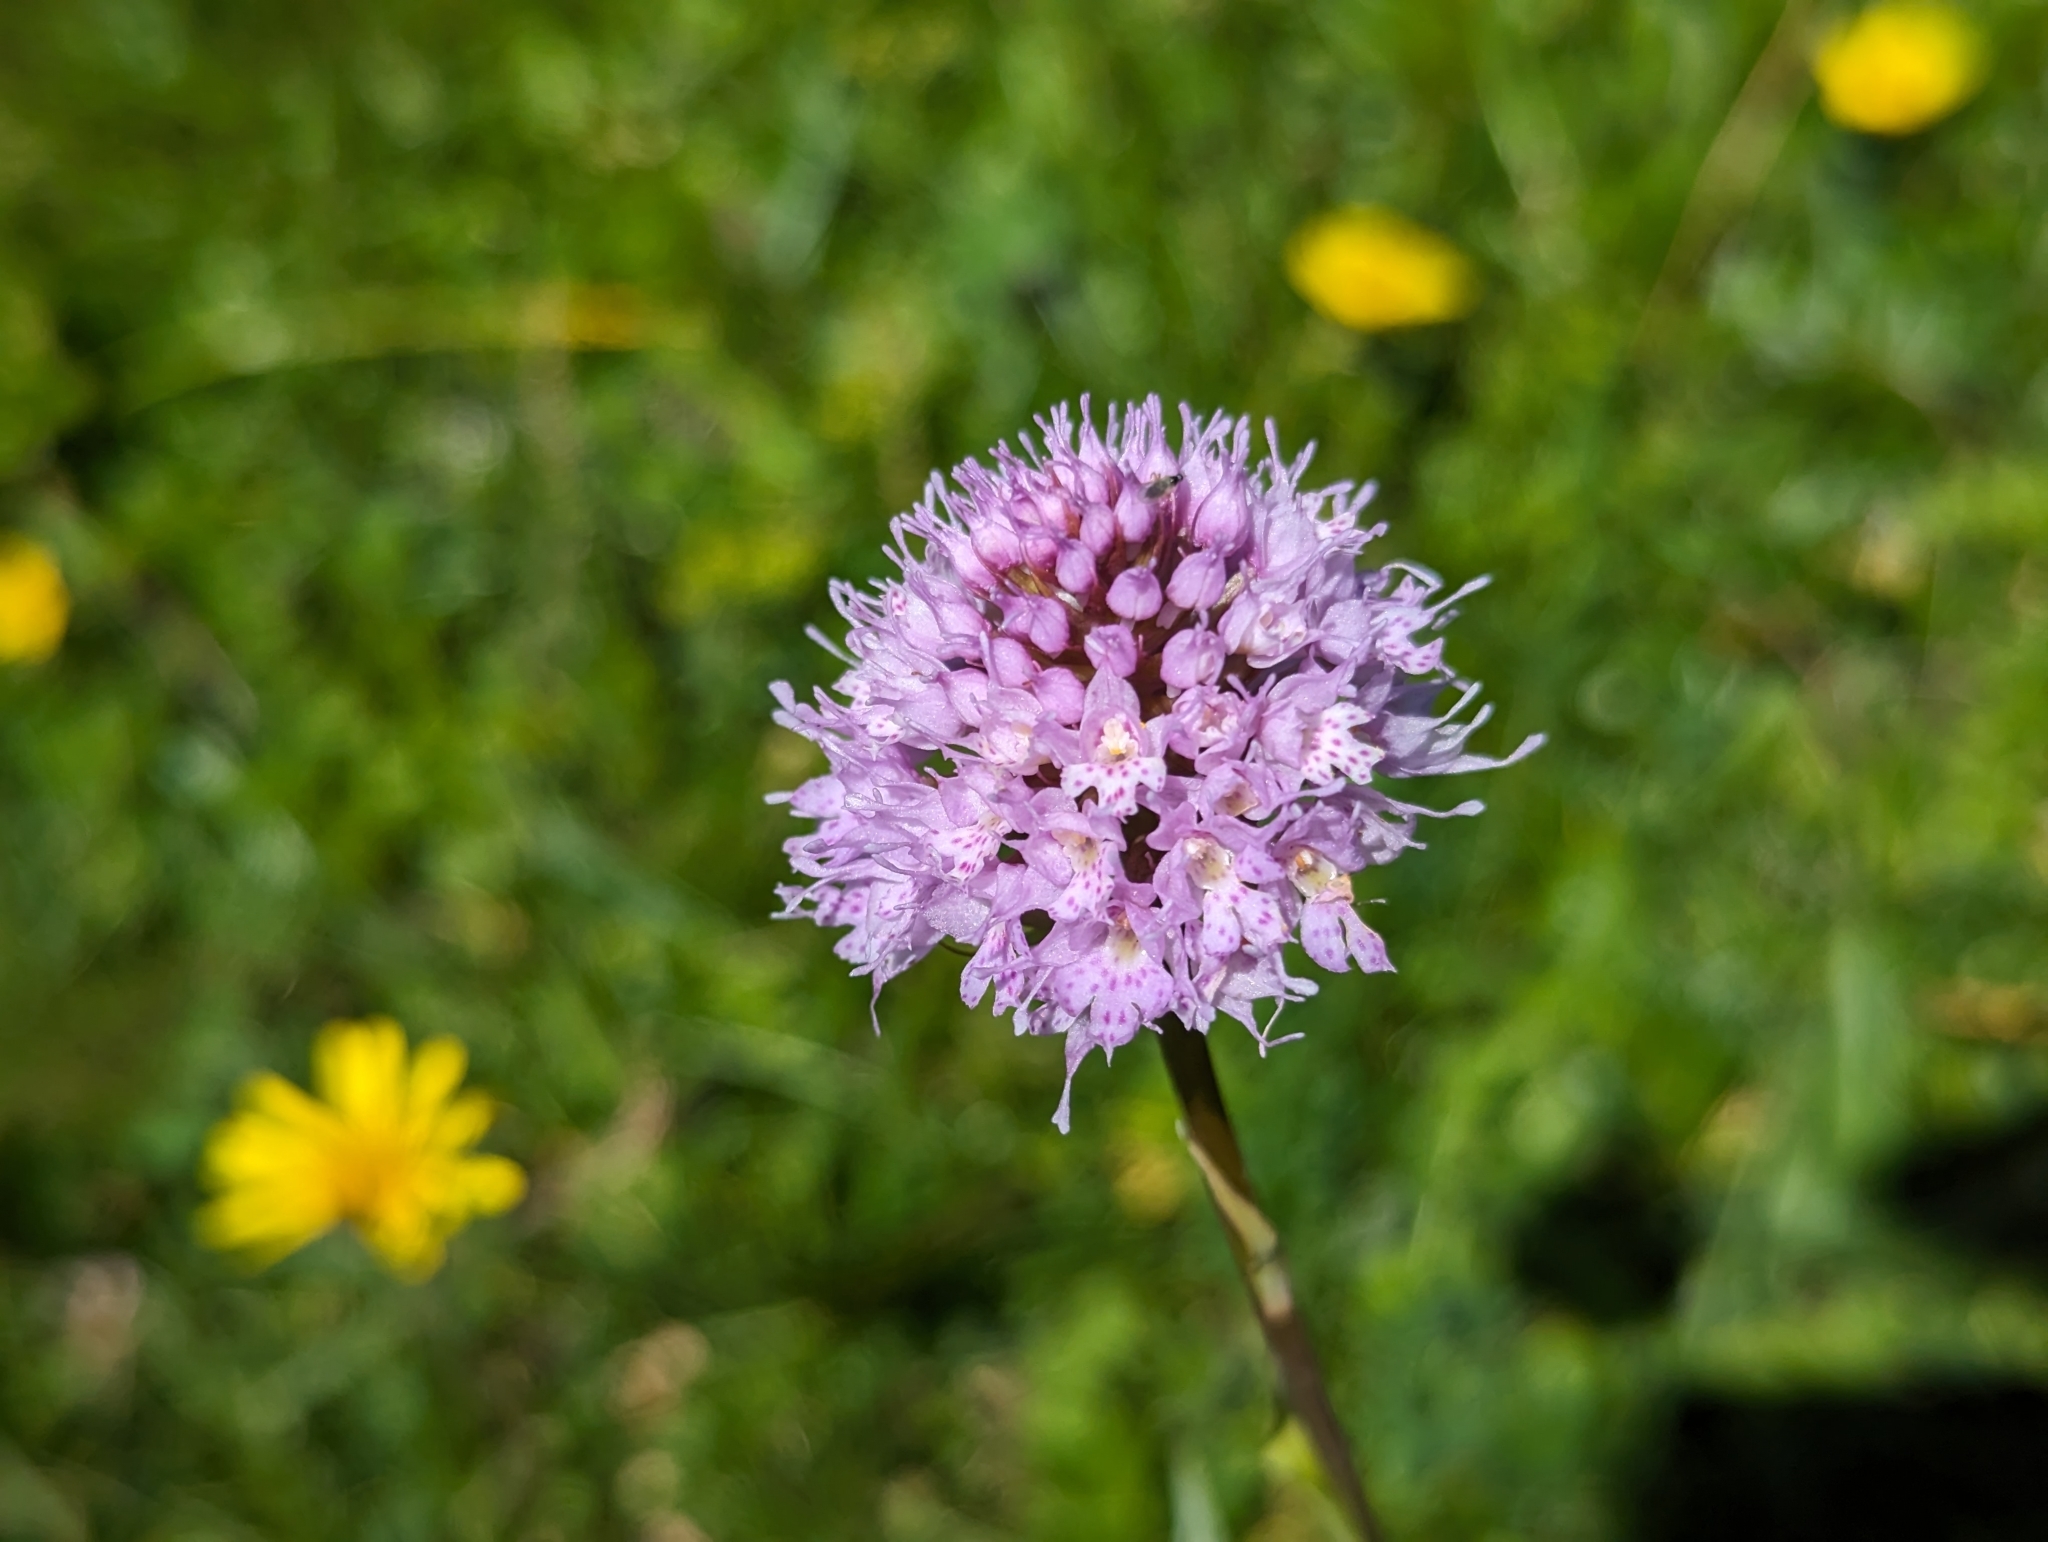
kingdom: Plantae
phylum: Tracheophyta
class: Liliopsida
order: Asparagales
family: Orchidaceae
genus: Traunsteinera
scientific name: Traunsteinera globosa
